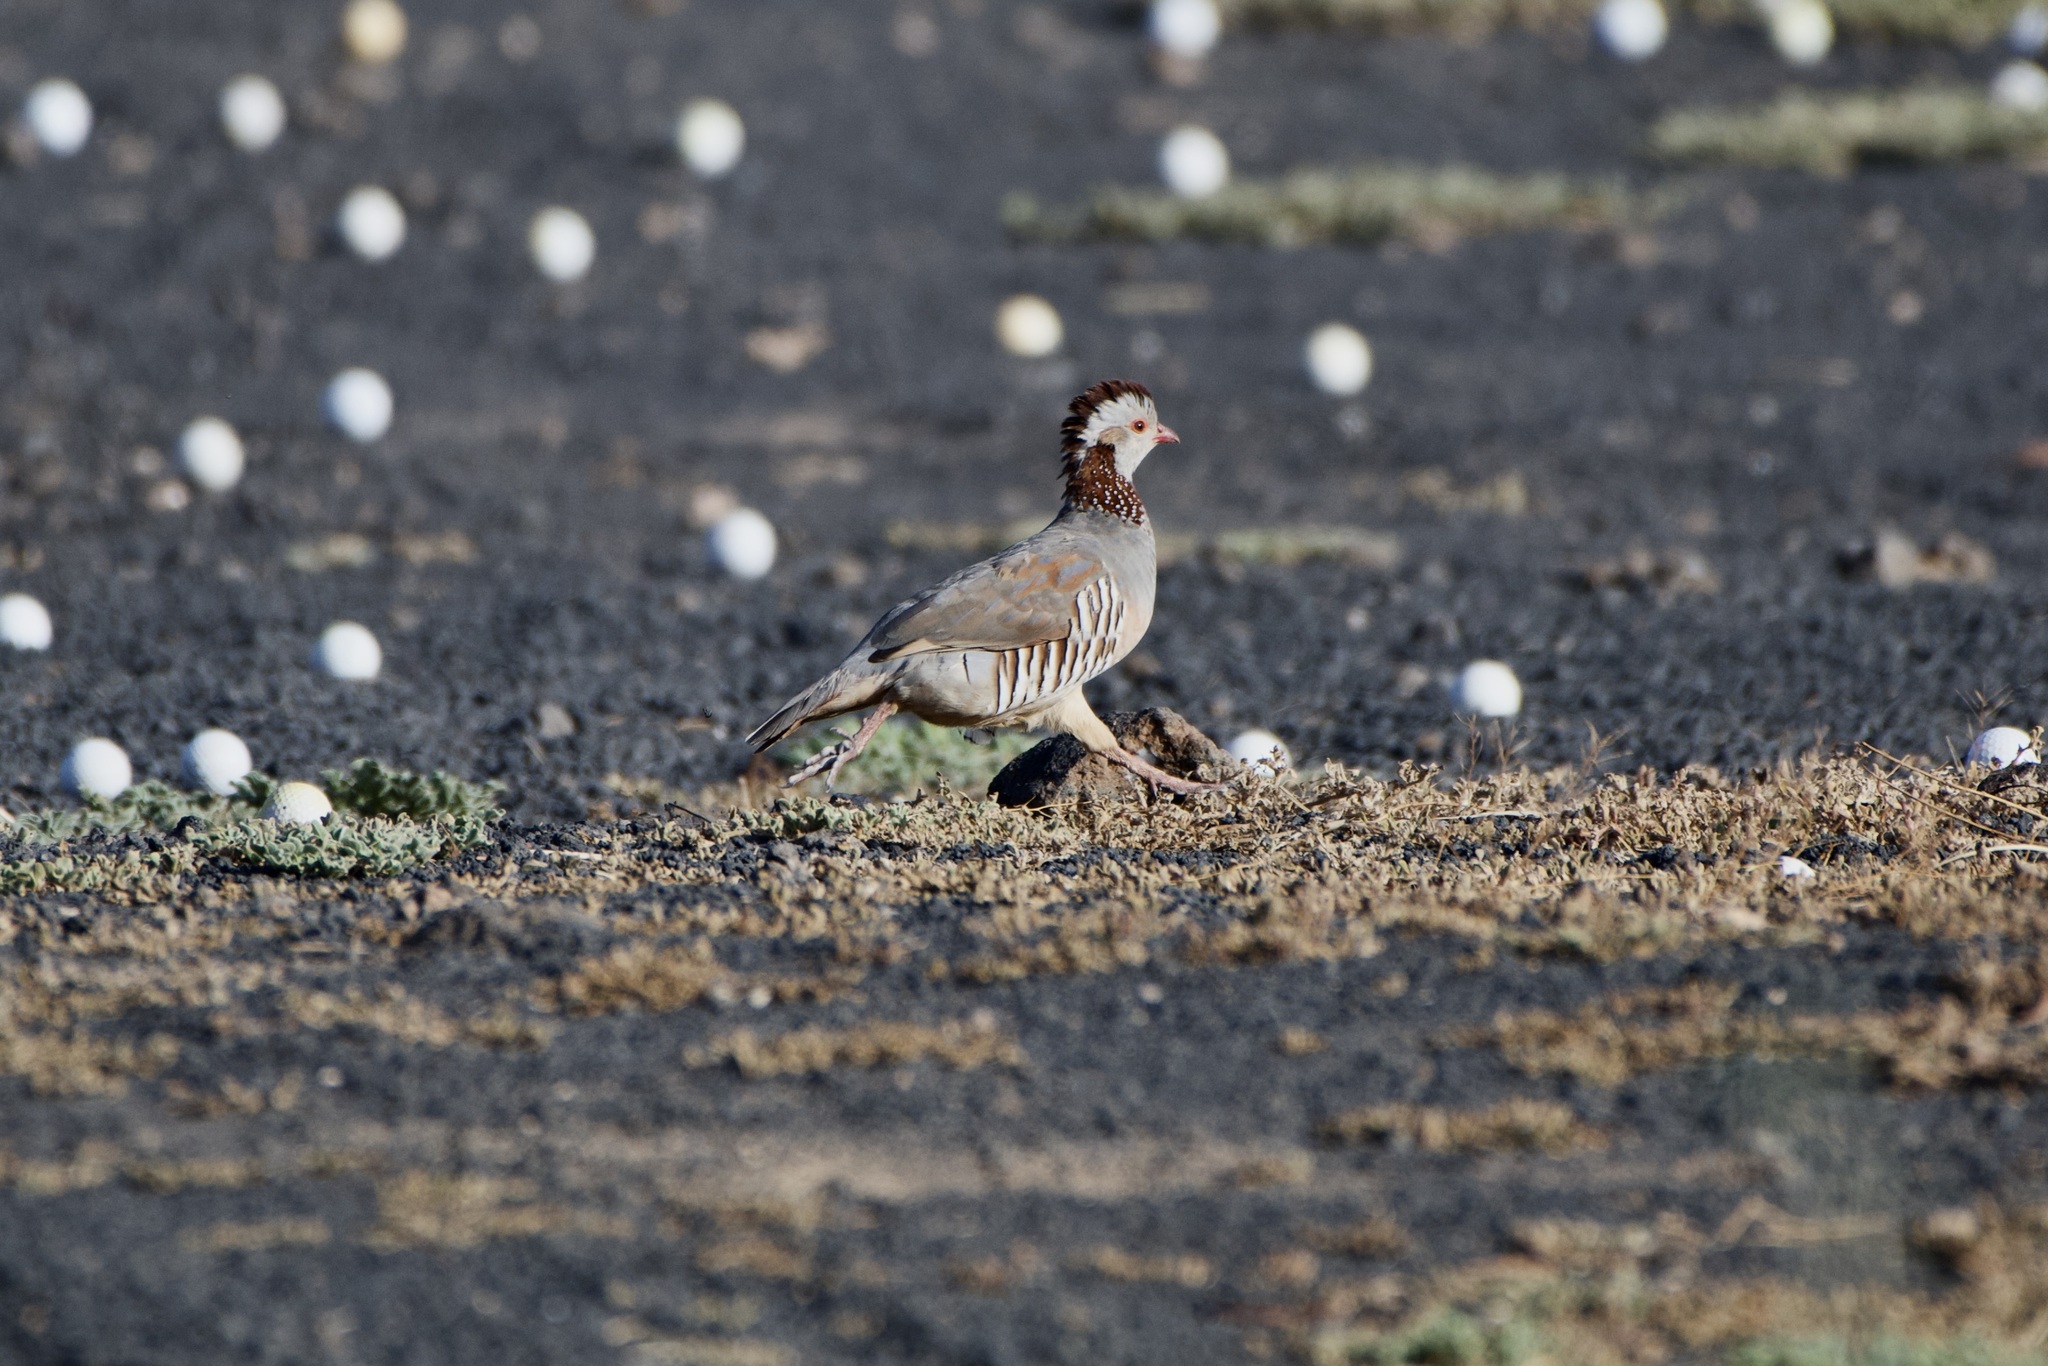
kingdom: Animalia
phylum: Chordata
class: Aves
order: Galliformes
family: Phasianidae
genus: Alectoris
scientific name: Alectoris barbara
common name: Barbary partridge
